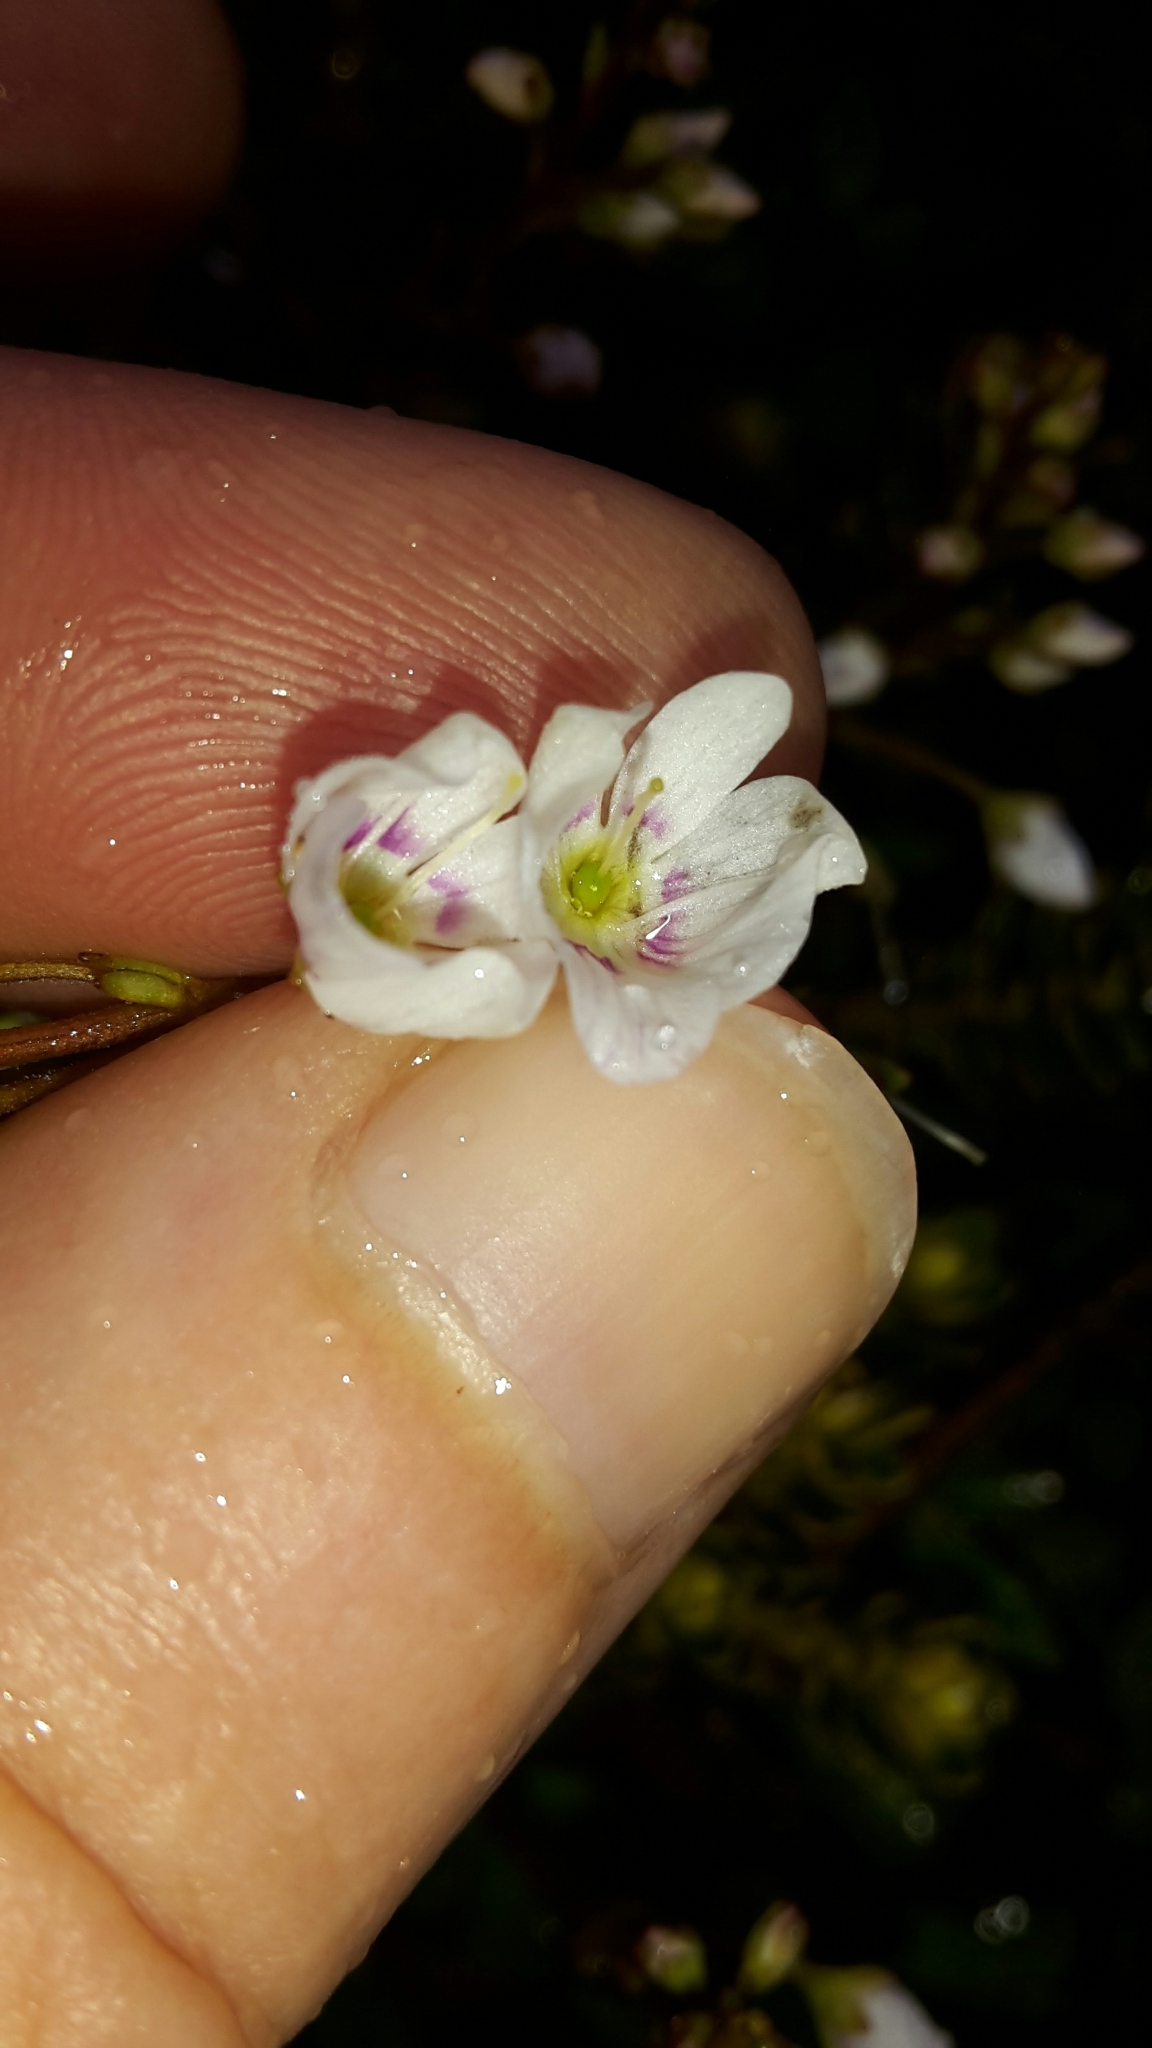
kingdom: Plantae
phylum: Tracheophyta
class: Magnoliopsida
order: Lamiales
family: Plantaginaceae
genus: Veronica
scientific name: Veronica lanceolata
